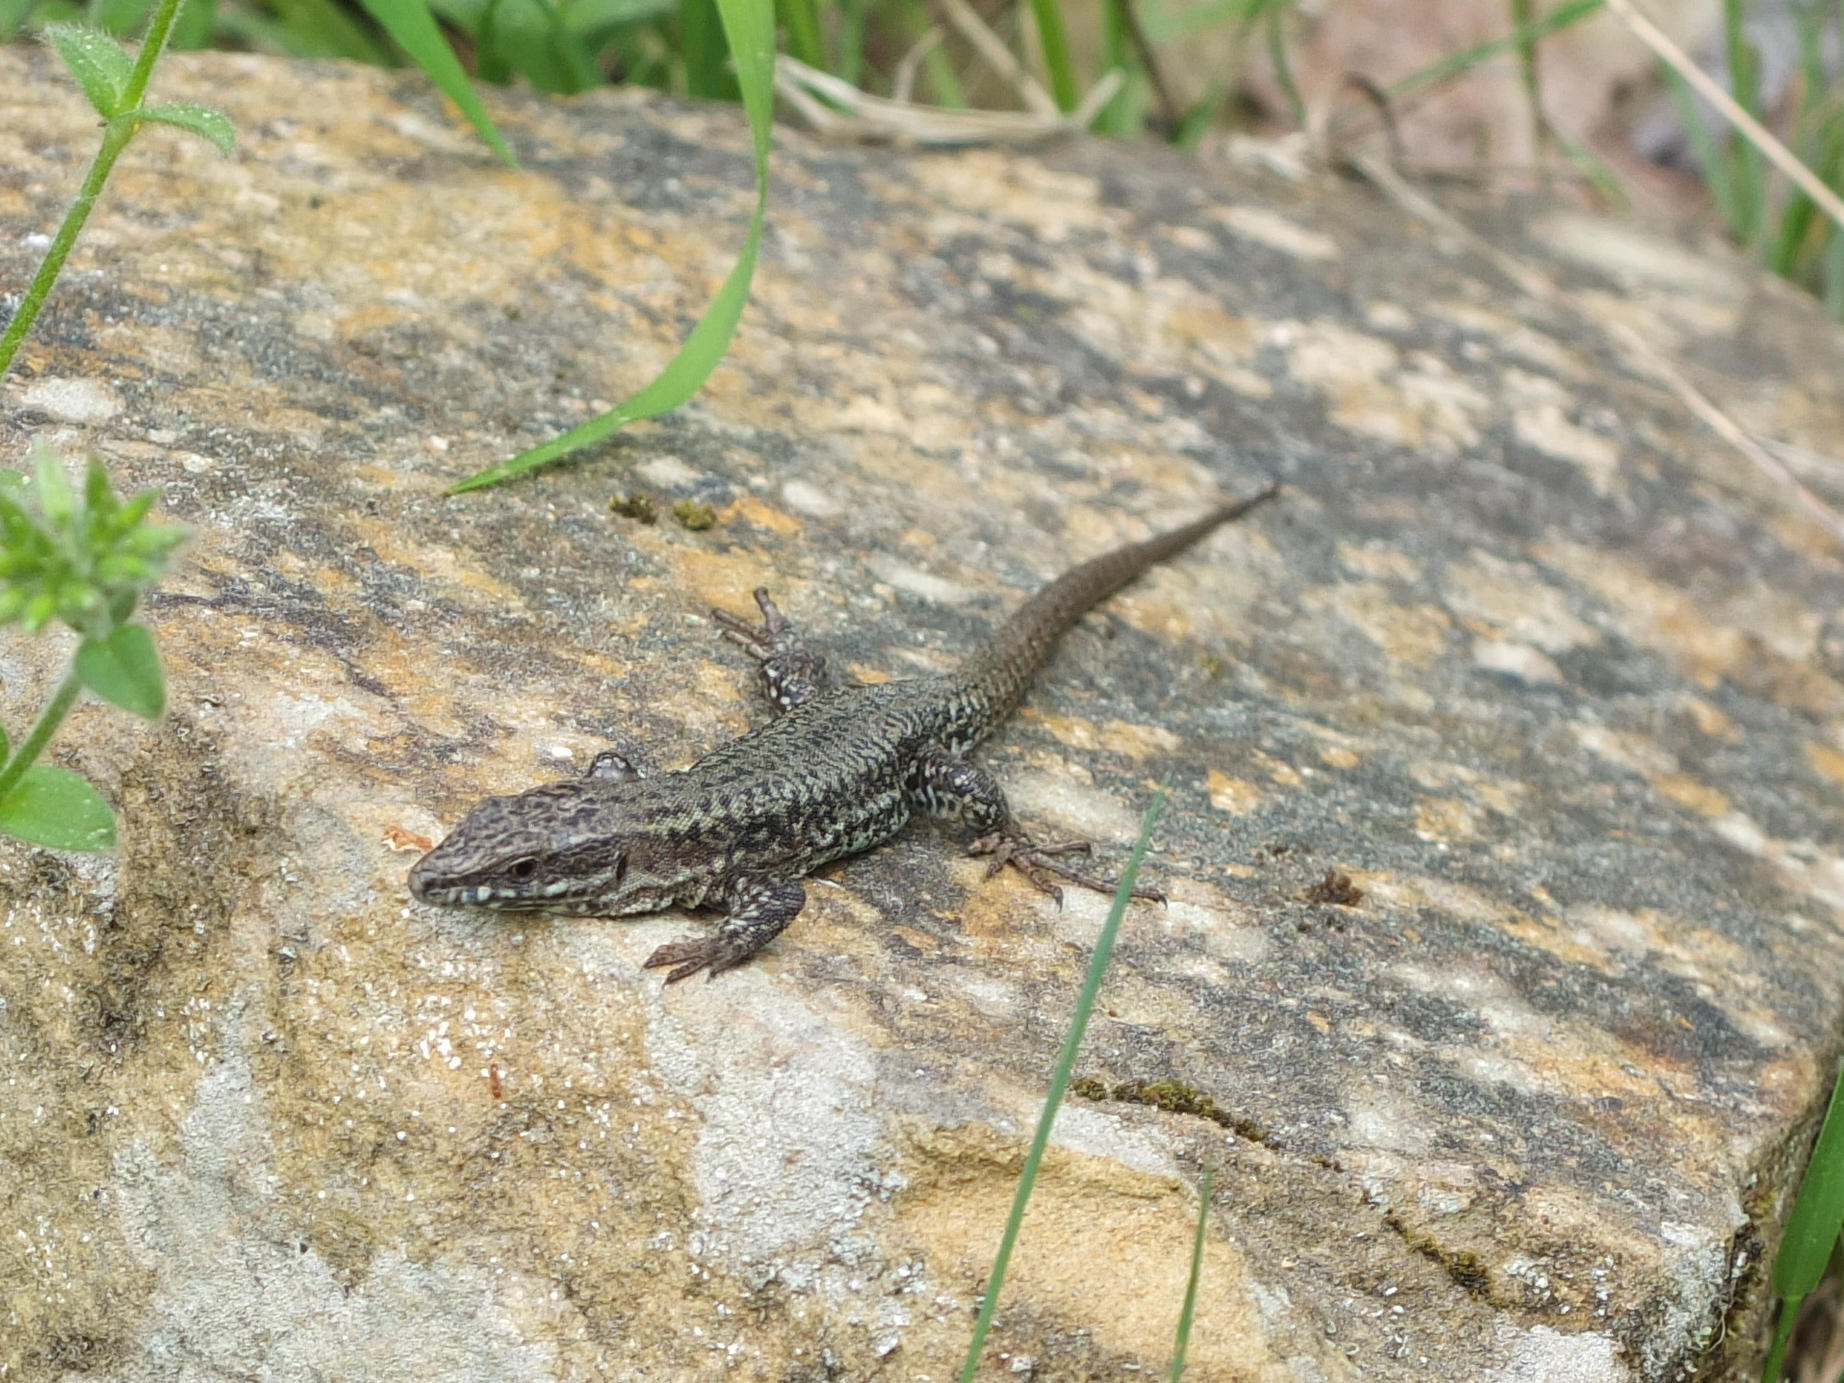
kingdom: Animalia
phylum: Chordata
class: Squamata
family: Lacertidae
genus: Podarcis
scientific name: Podarcis muralis
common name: Common wall lizard
